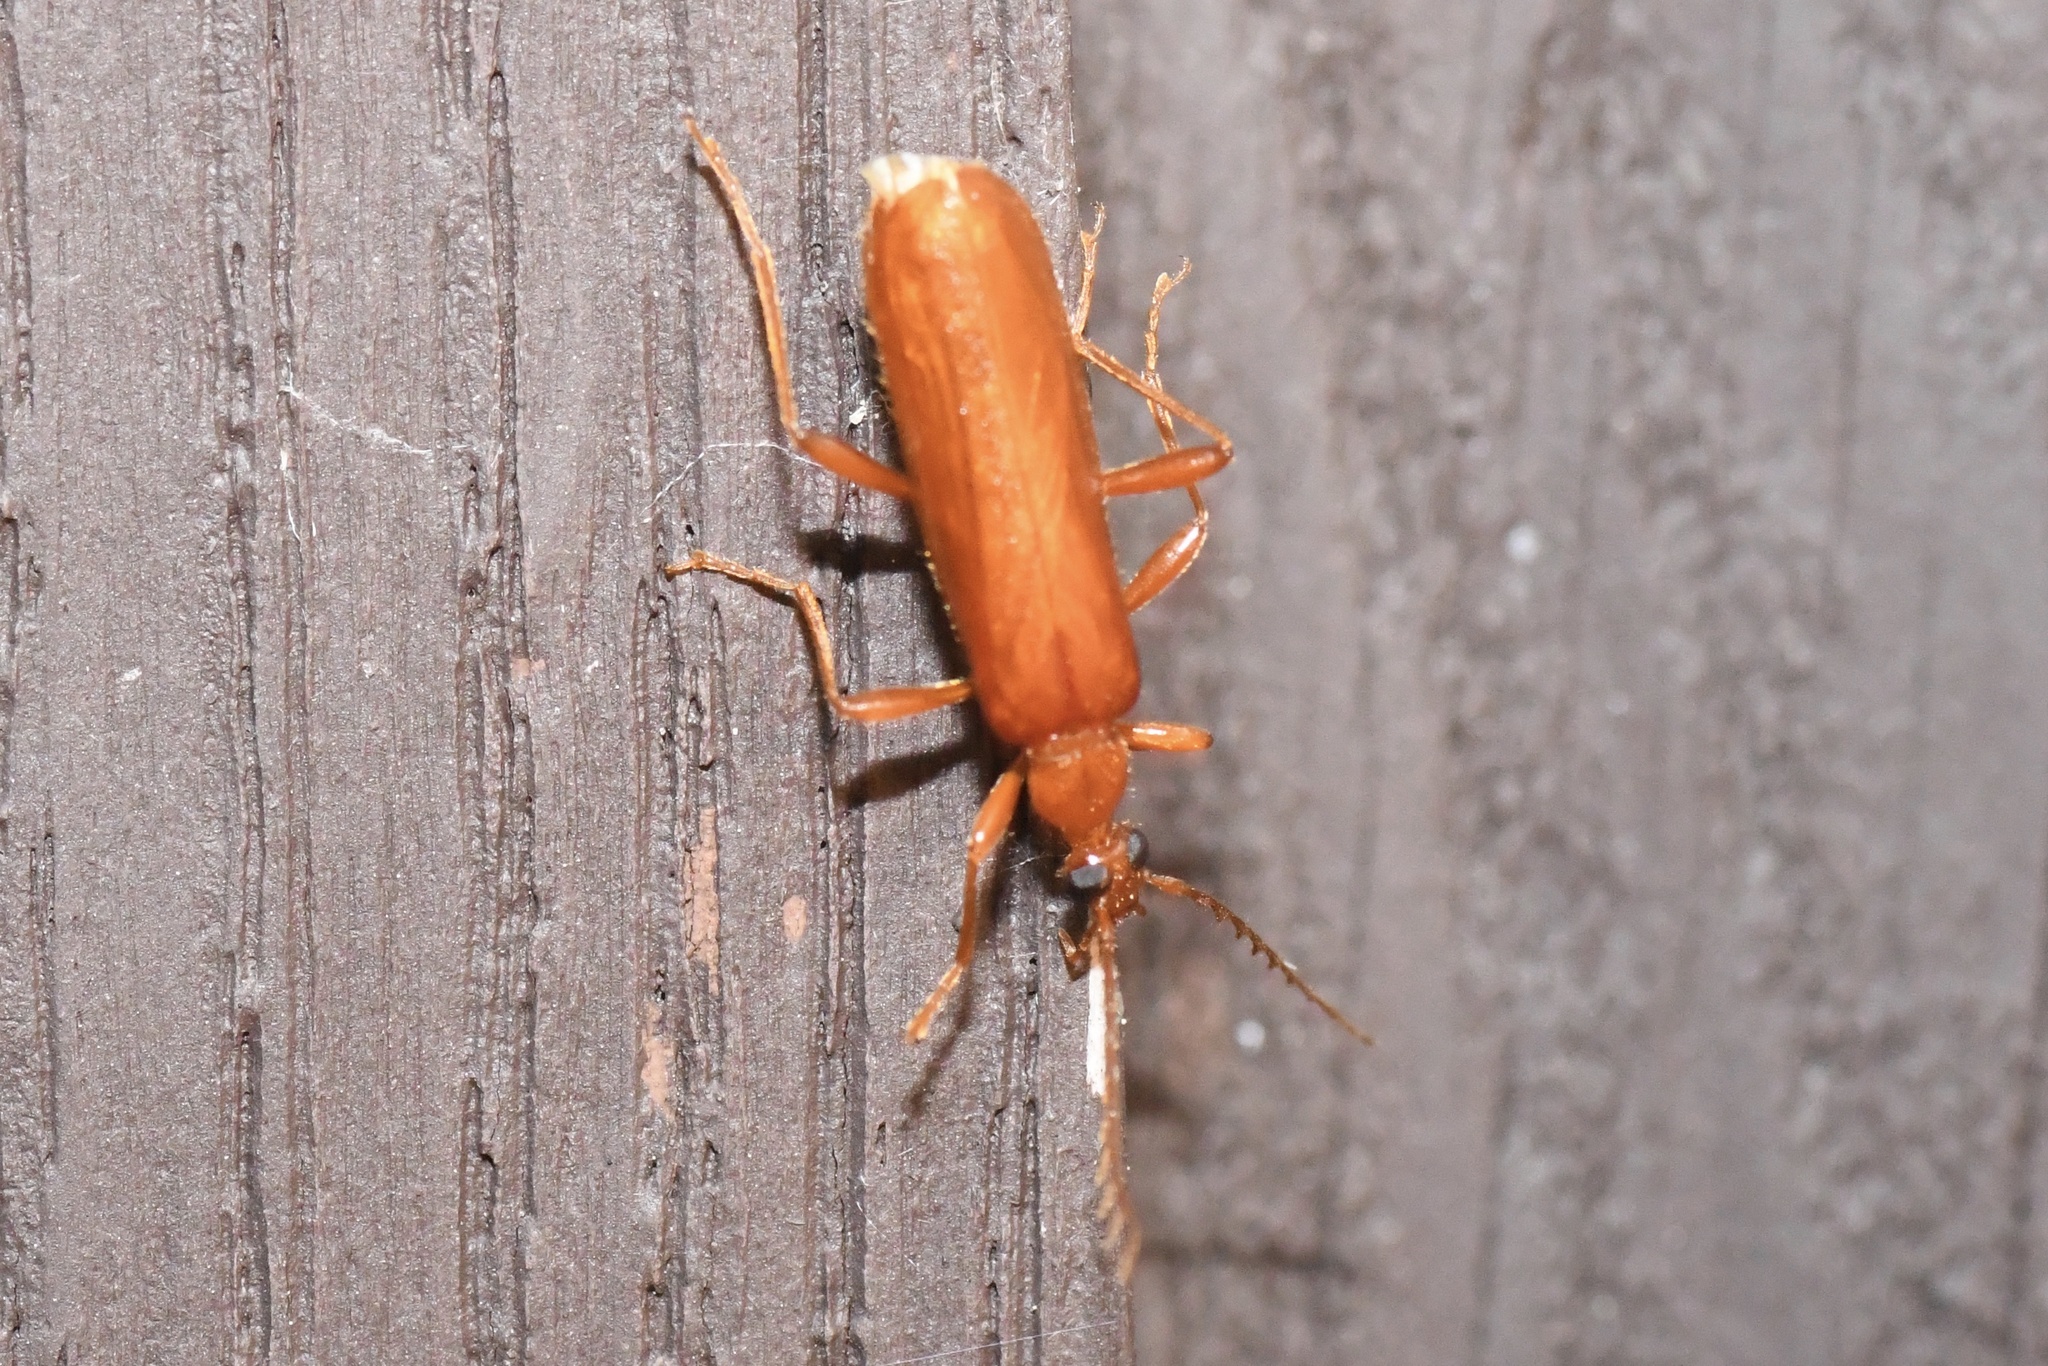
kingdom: Animalia
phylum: Arthropoda
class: Insecta
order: Coleoptera
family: Pyrochroidae
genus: Dendroides
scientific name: Dendroides concolor
